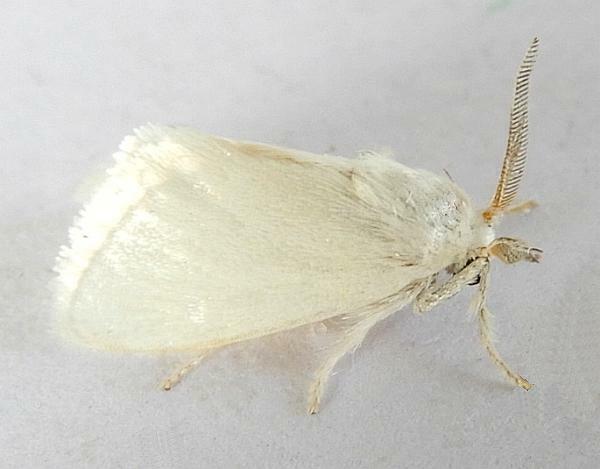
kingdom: Animalia
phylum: Arthropoda
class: Insecta
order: Lepidoptera
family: Limacodidae
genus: Alarodia
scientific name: Alarodia slossoniae
